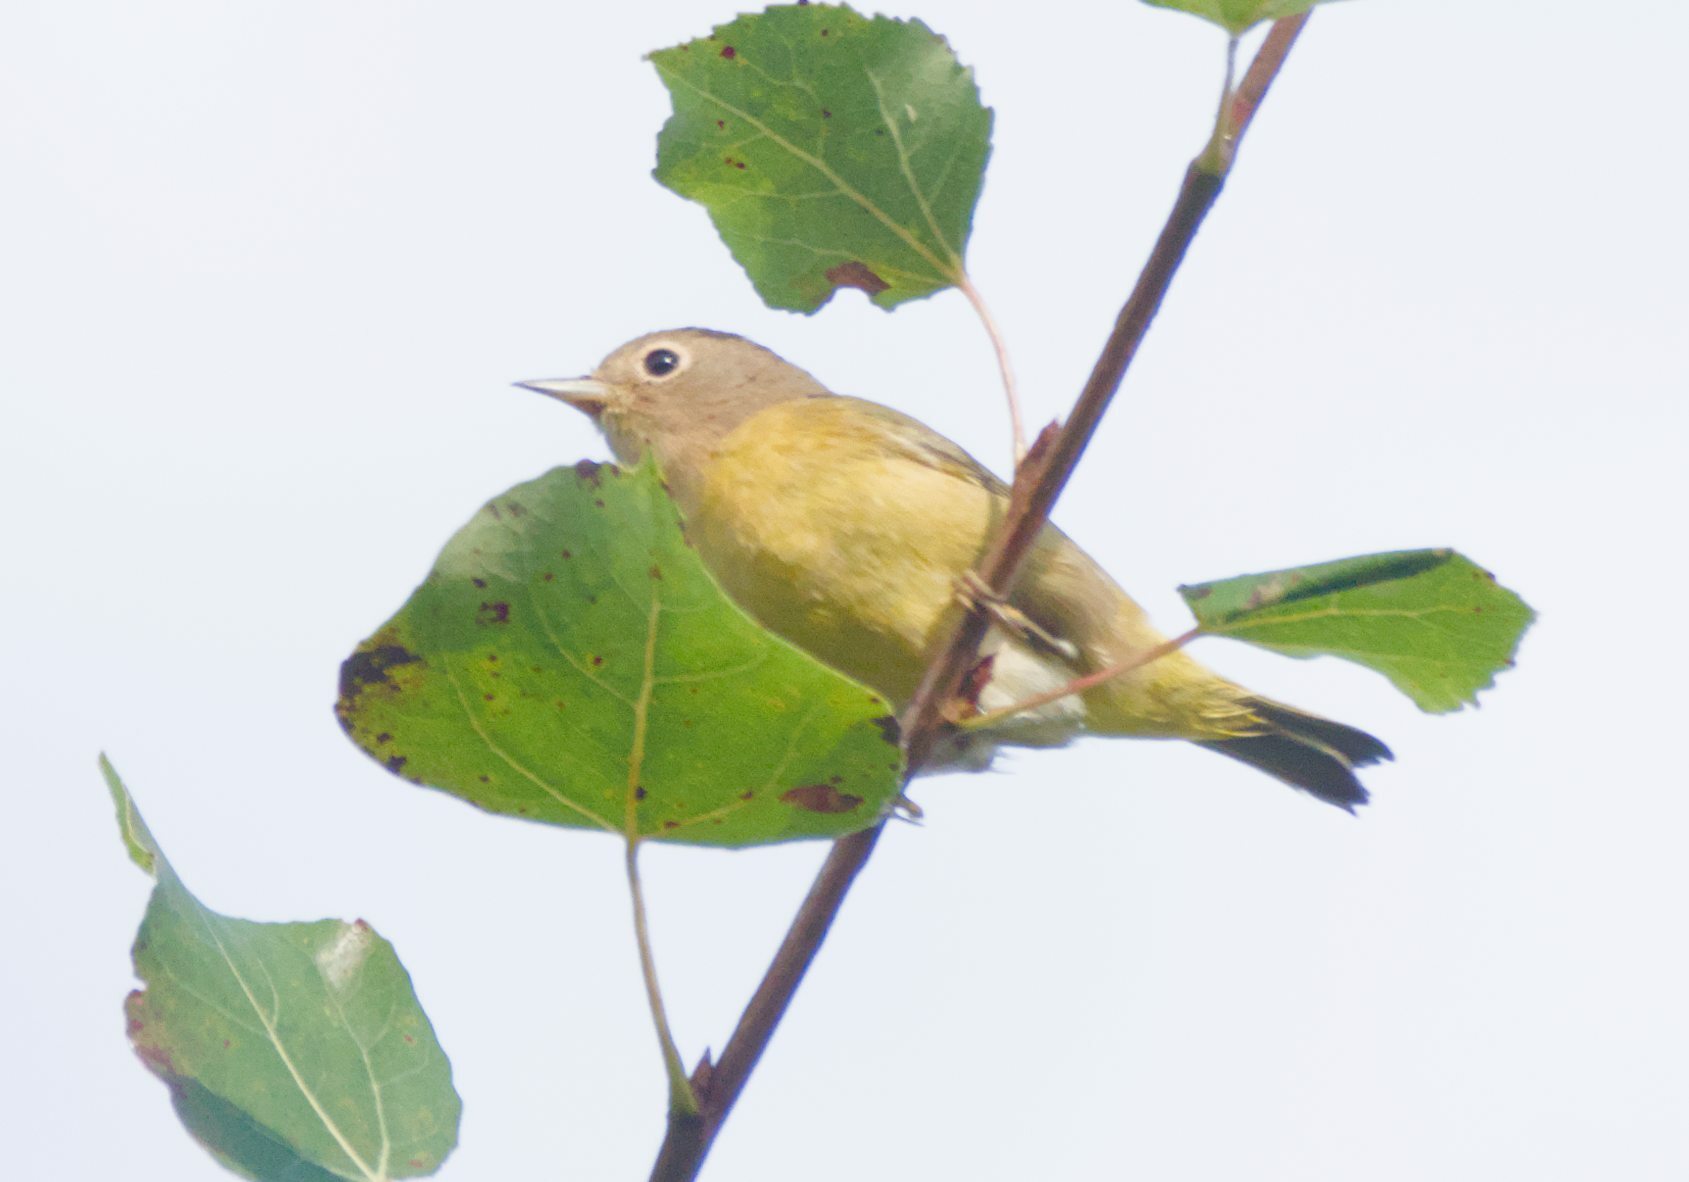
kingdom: Animalia
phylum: Chordata
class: Aves
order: Passeriformes
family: Parulidae
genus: Leiothlypis
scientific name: Leiothlypis ruficapilla
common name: Nashville warbler
